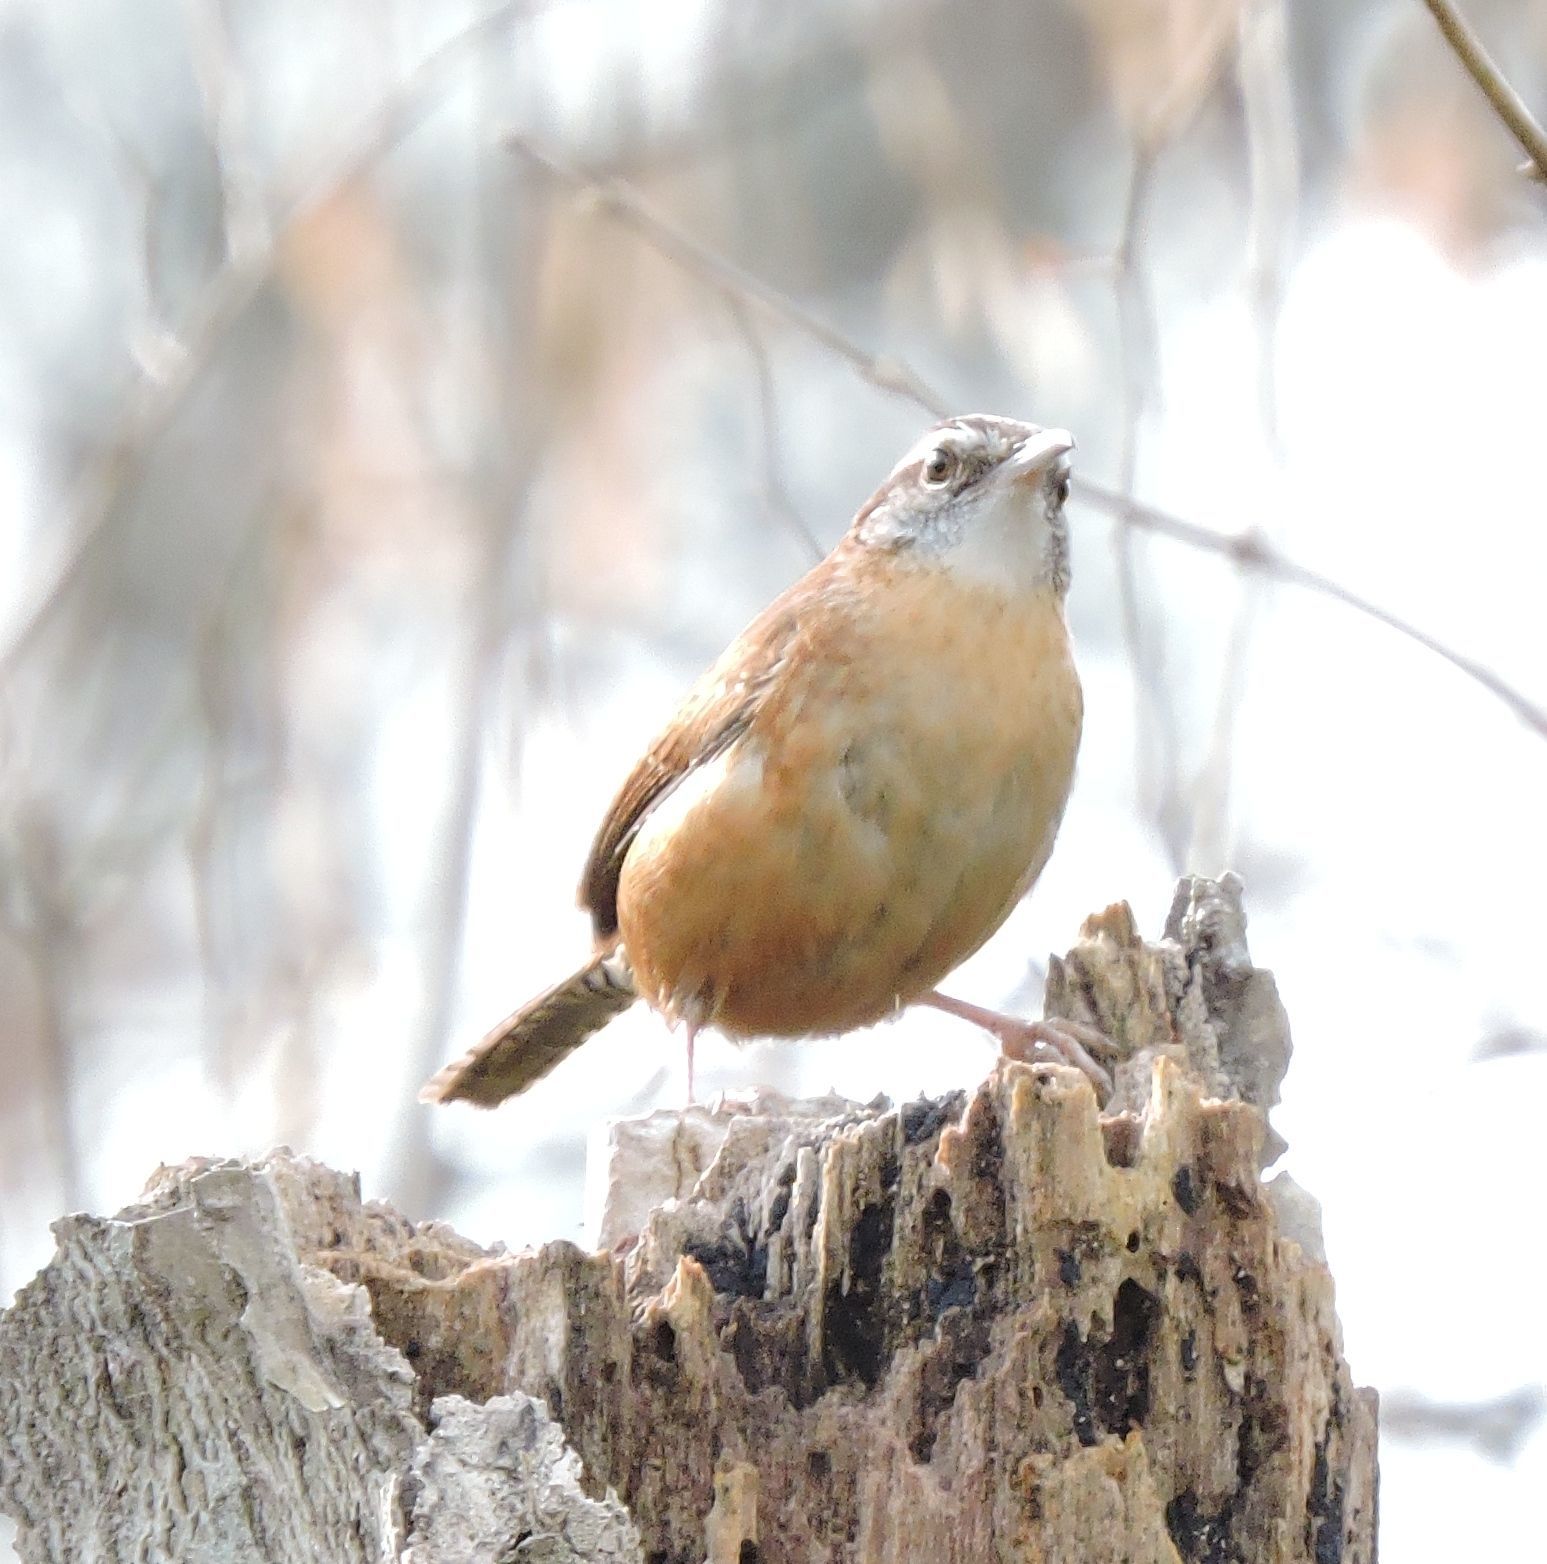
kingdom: Animalia
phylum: Chordata
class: Aves
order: Passeriformes
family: Troglodytidae
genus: Thryothorus
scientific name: Thryothorus ludovicianus
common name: Carolina wren
